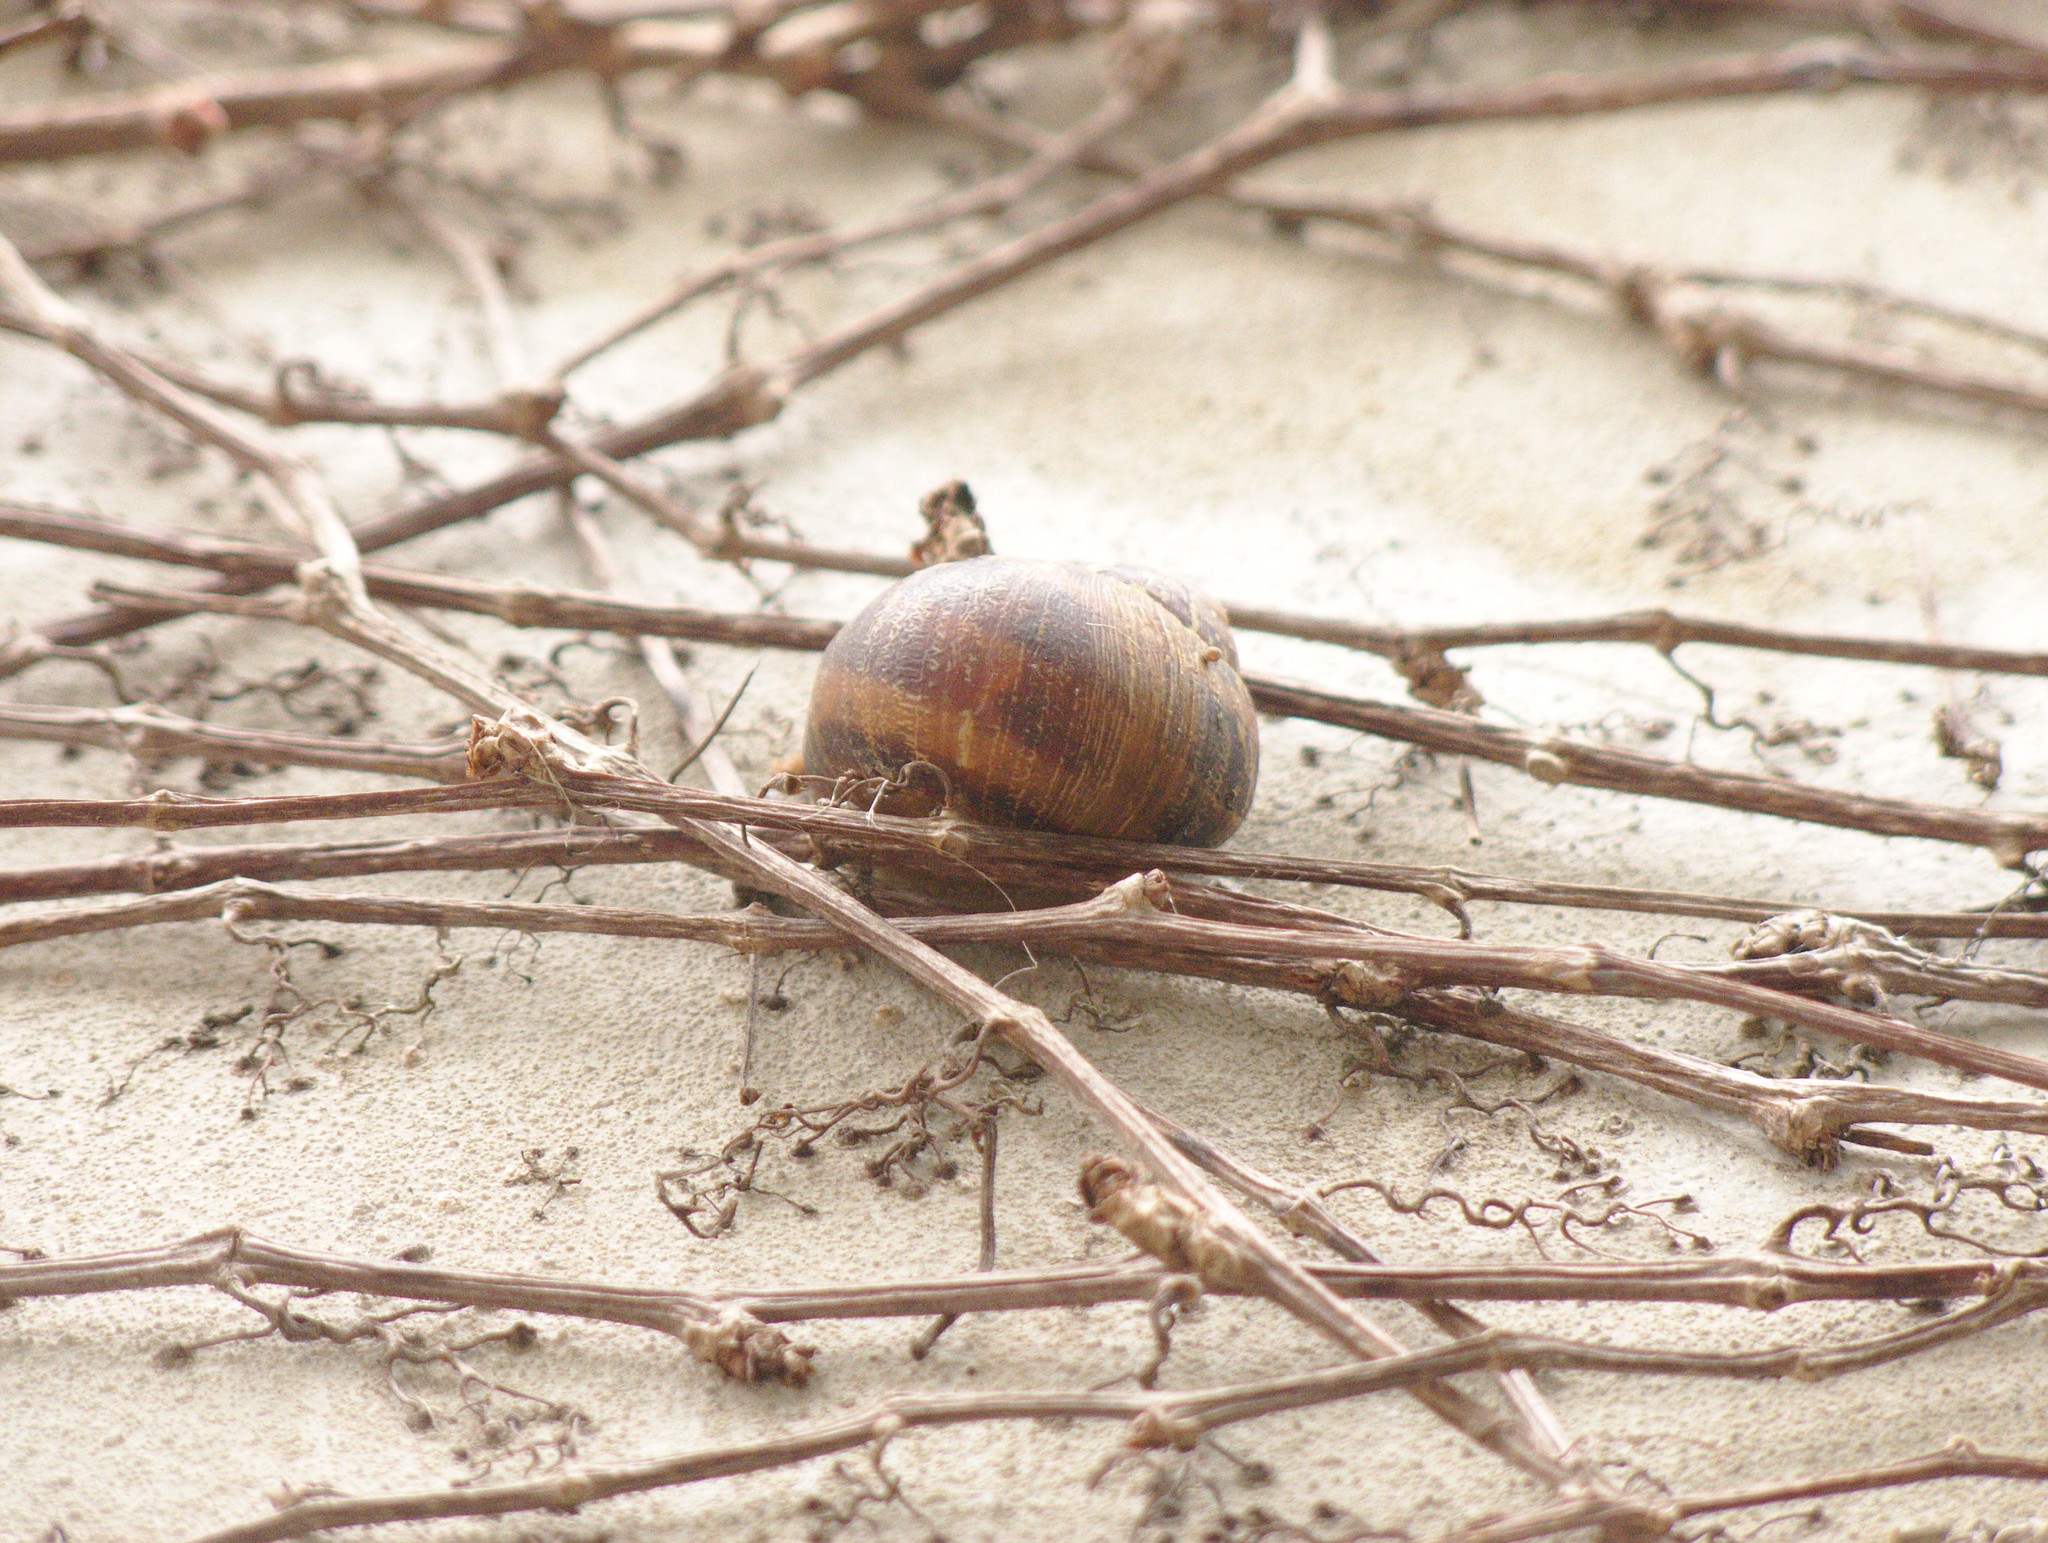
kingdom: Animalia
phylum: Mollusca
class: Gastropoda
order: Stylommatophora
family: Helicidae
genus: Cornu
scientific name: Cornu aspersum
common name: Brown garden snail
